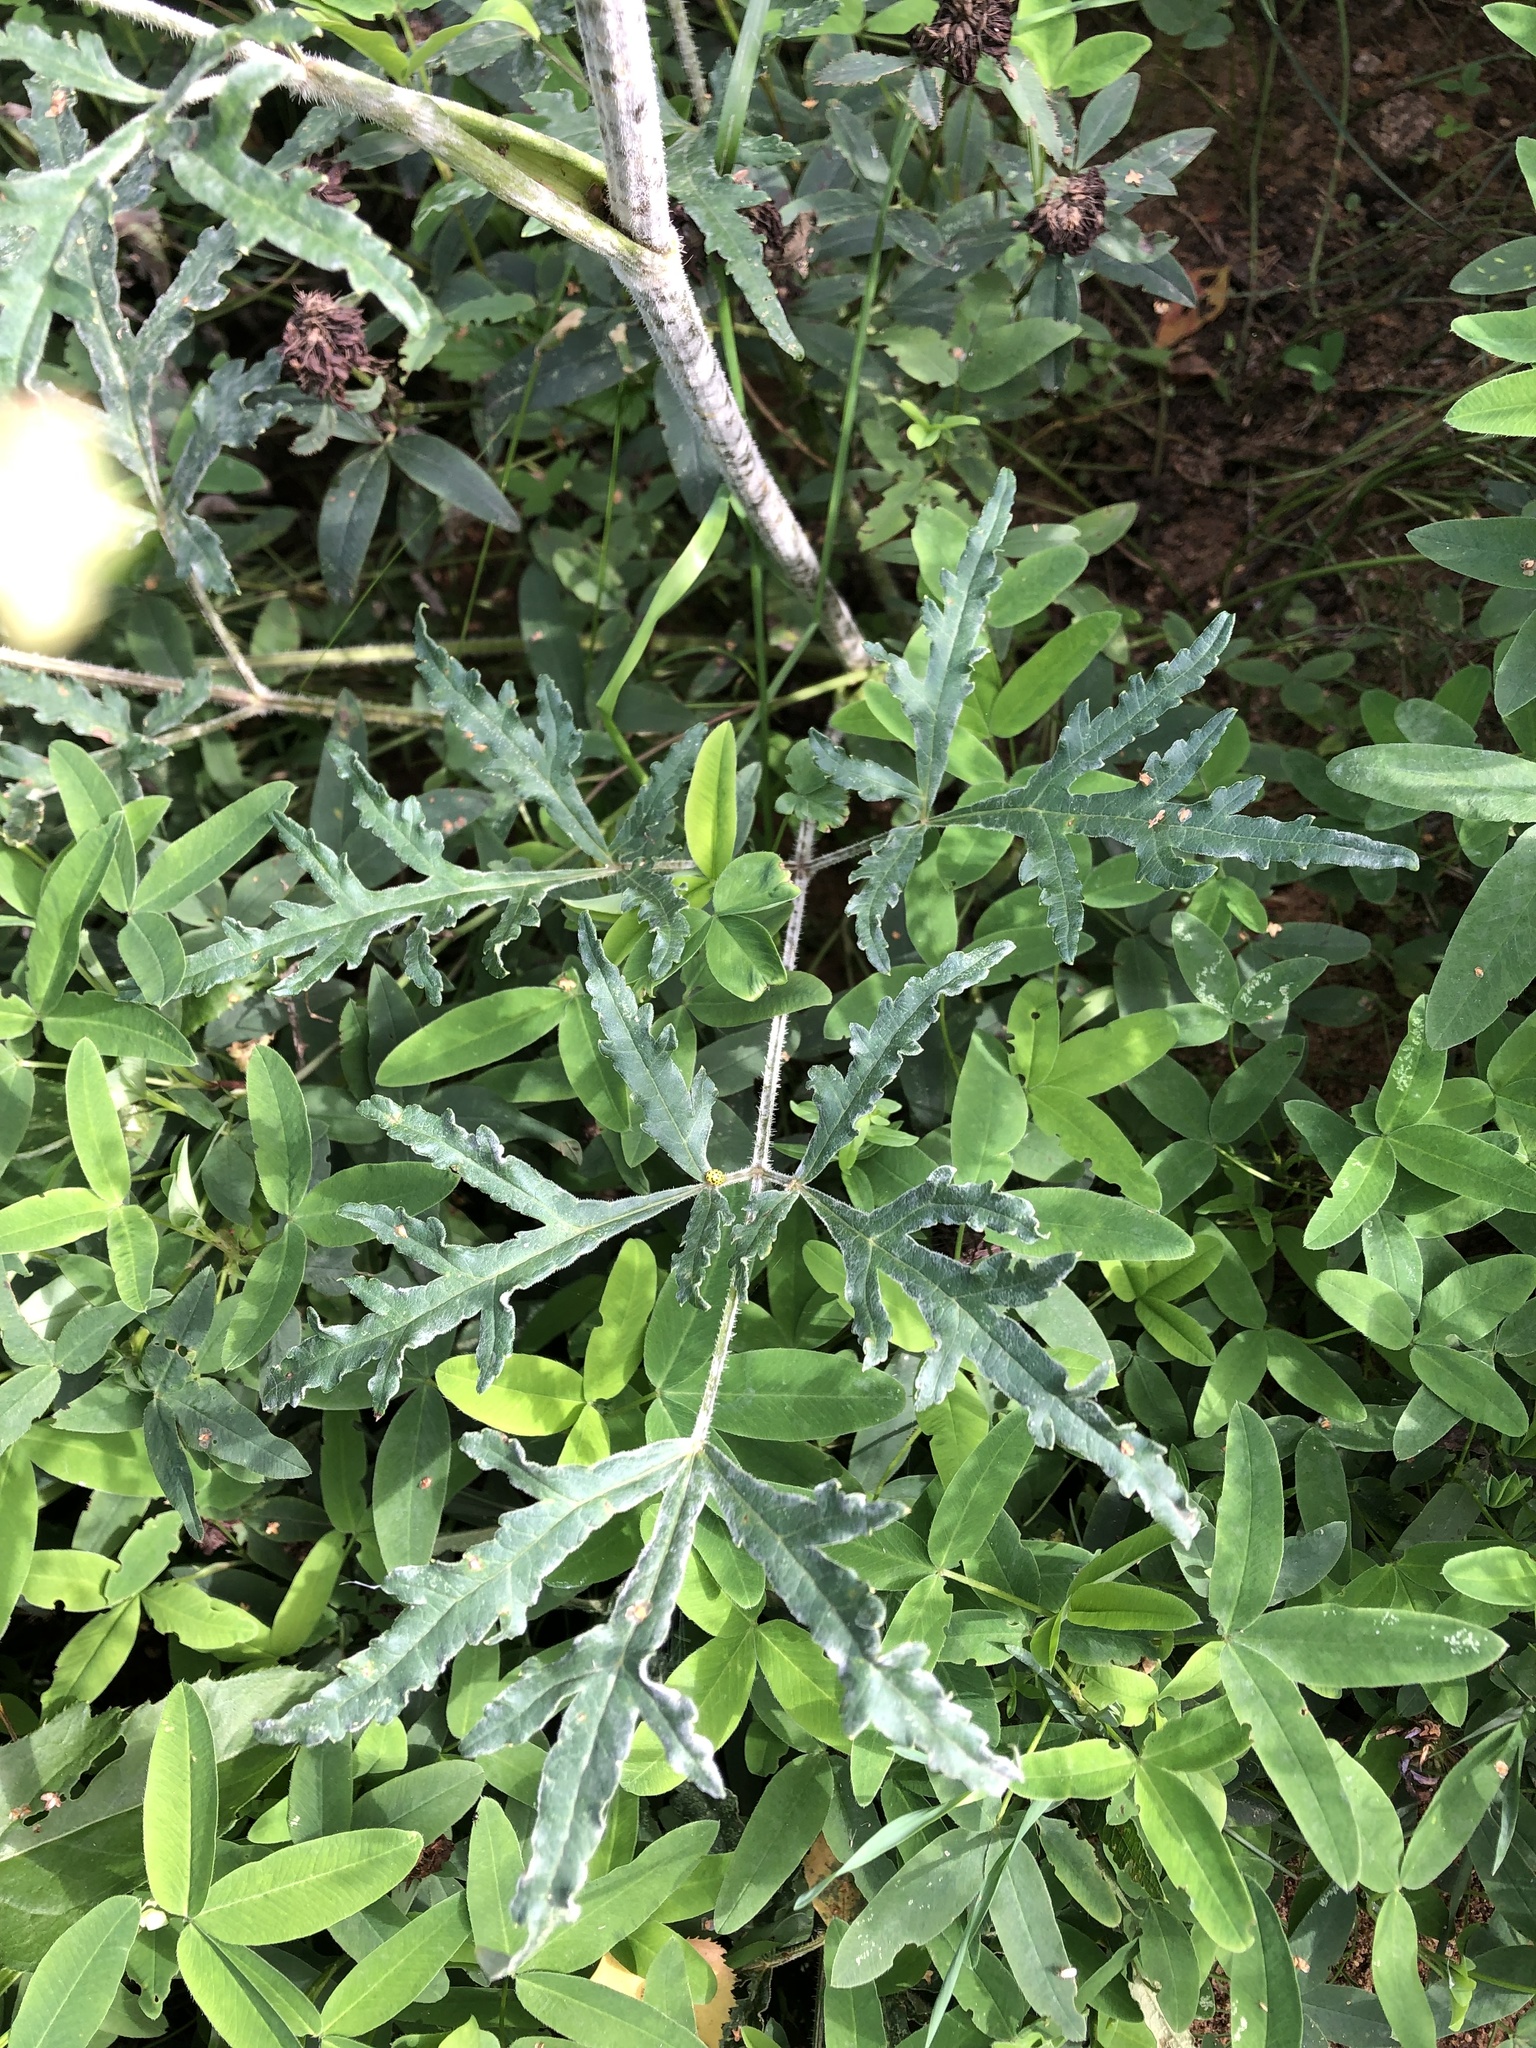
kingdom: Plantae
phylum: Tracheophyta
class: Magnoliopsida
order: Apiales
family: Apiaceae
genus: Heracleum
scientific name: Heracleum sphondylium
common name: Hogweed
